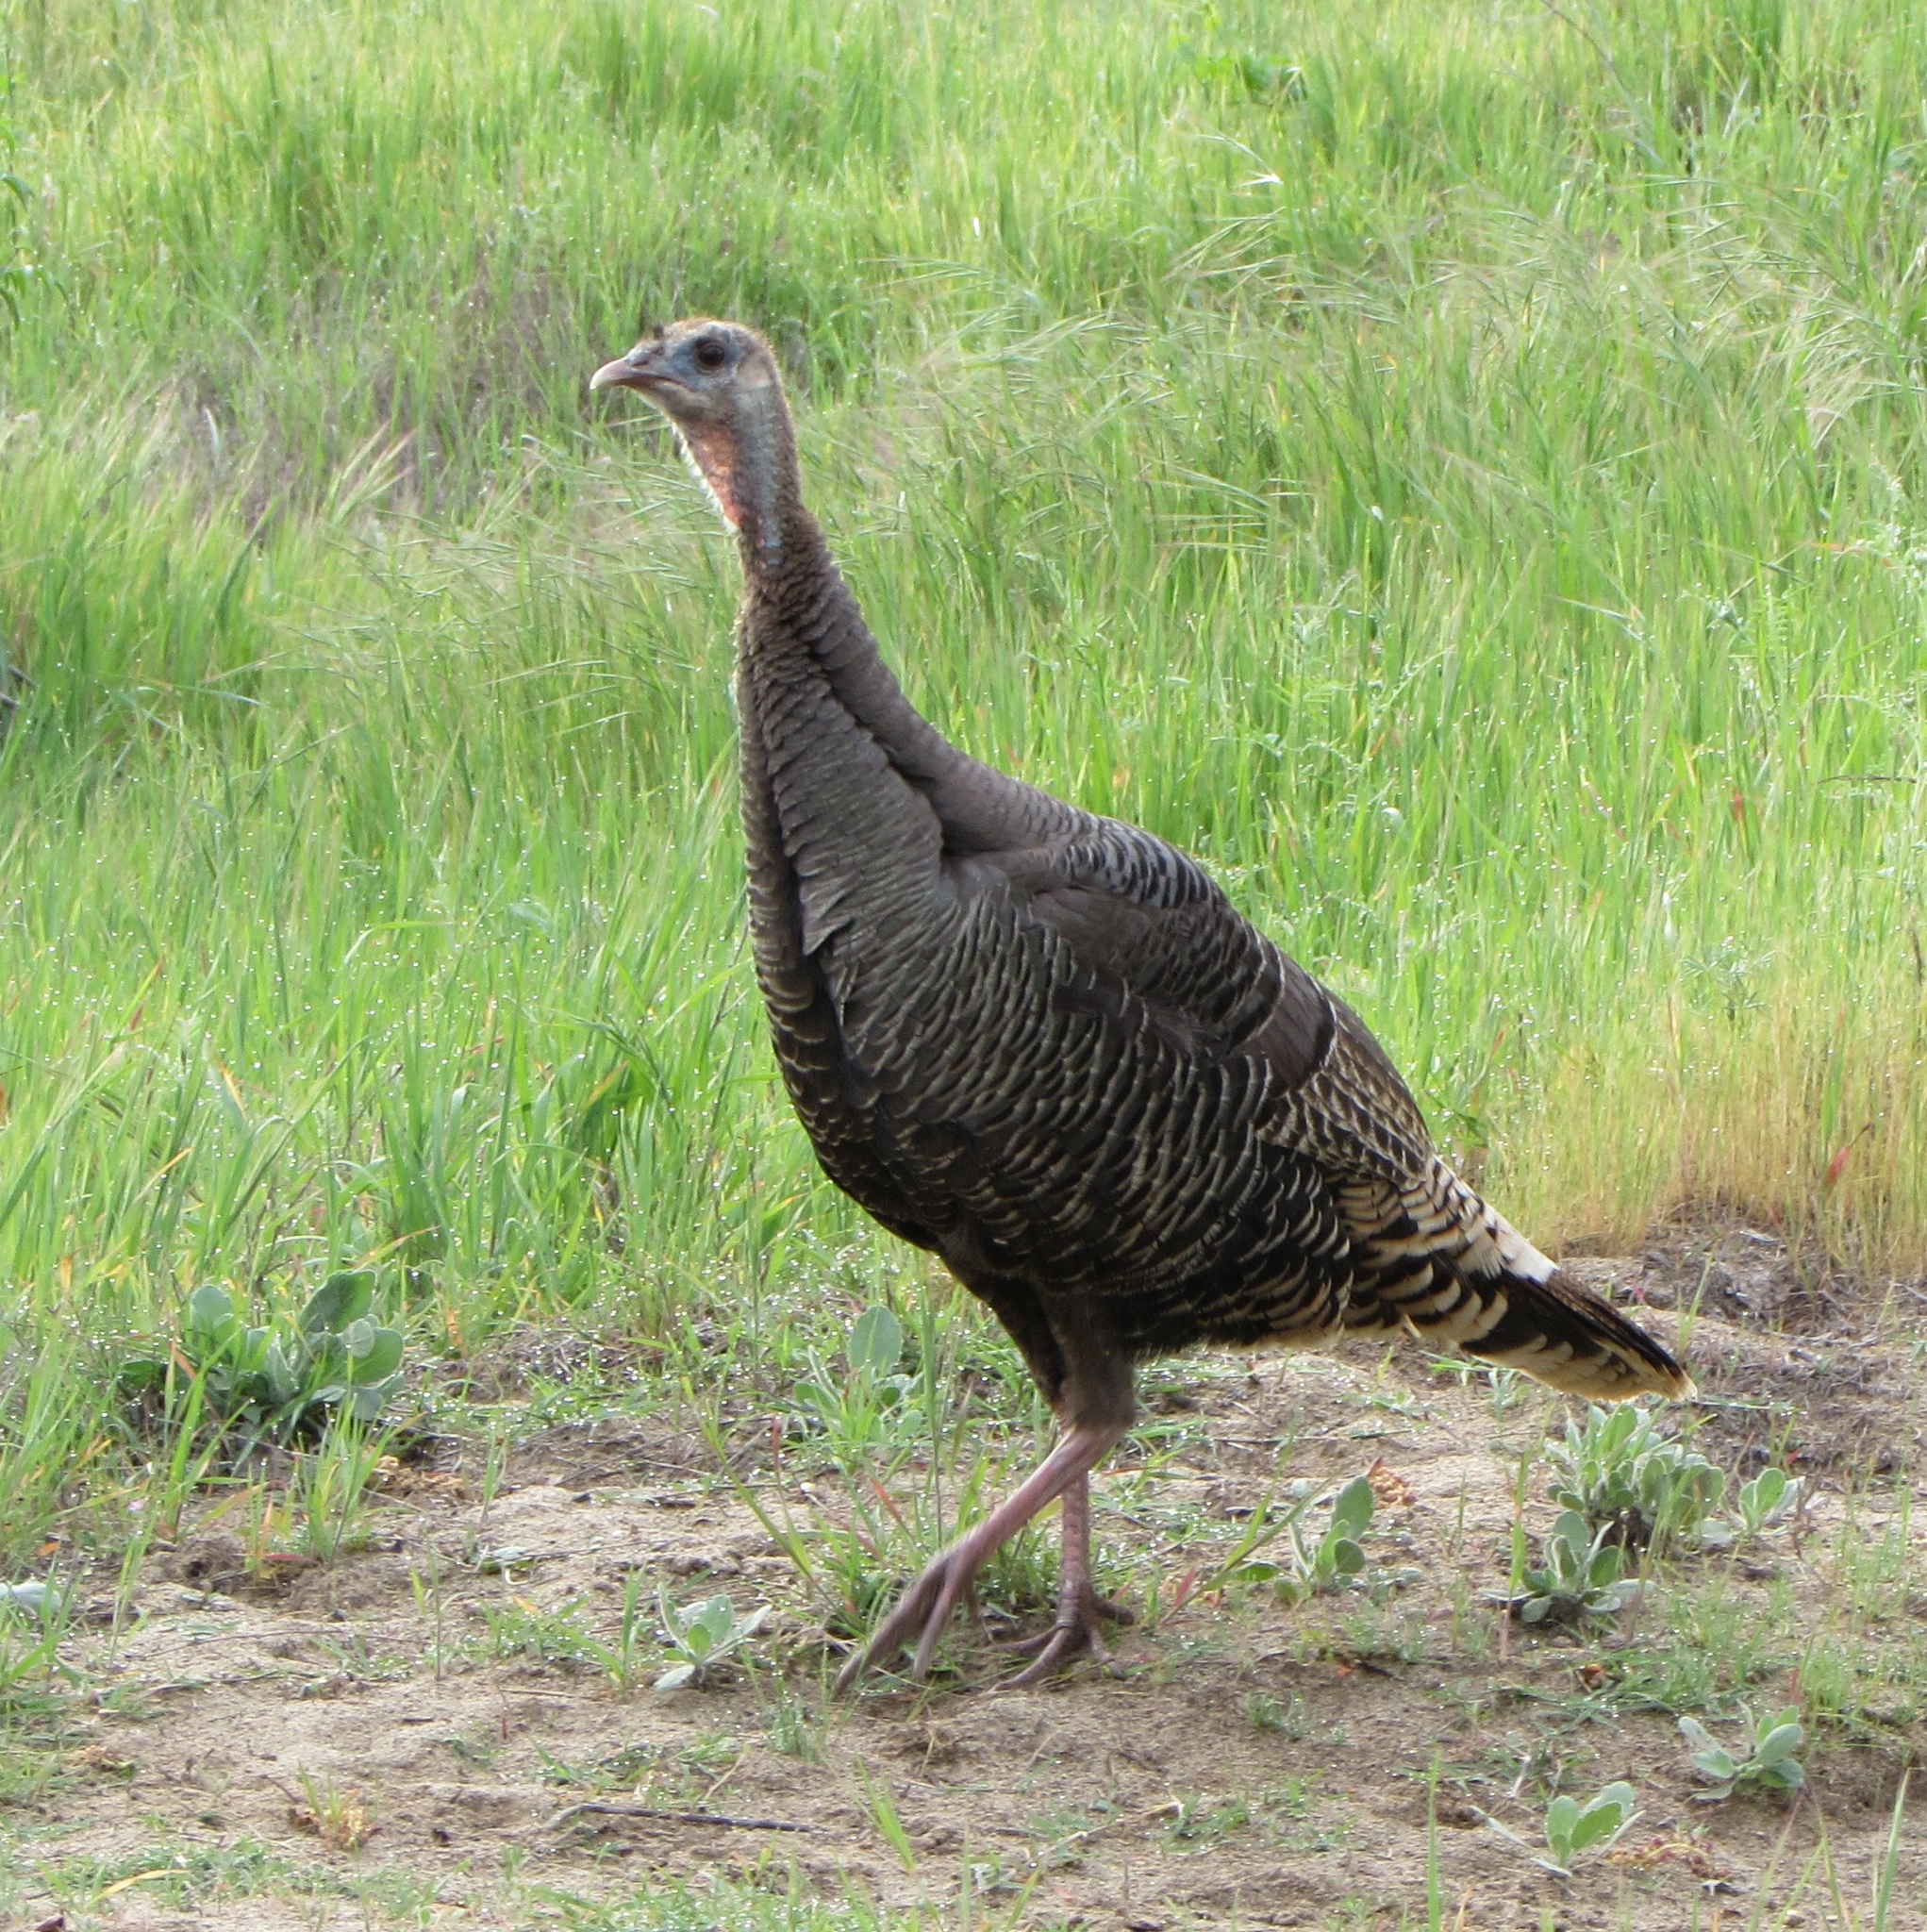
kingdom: Animalia
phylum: Chordata
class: Aves
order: Galliformes
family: Phasianidae
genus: Meleagris
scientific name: Meleagris gallopavo
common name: Wild turkey
